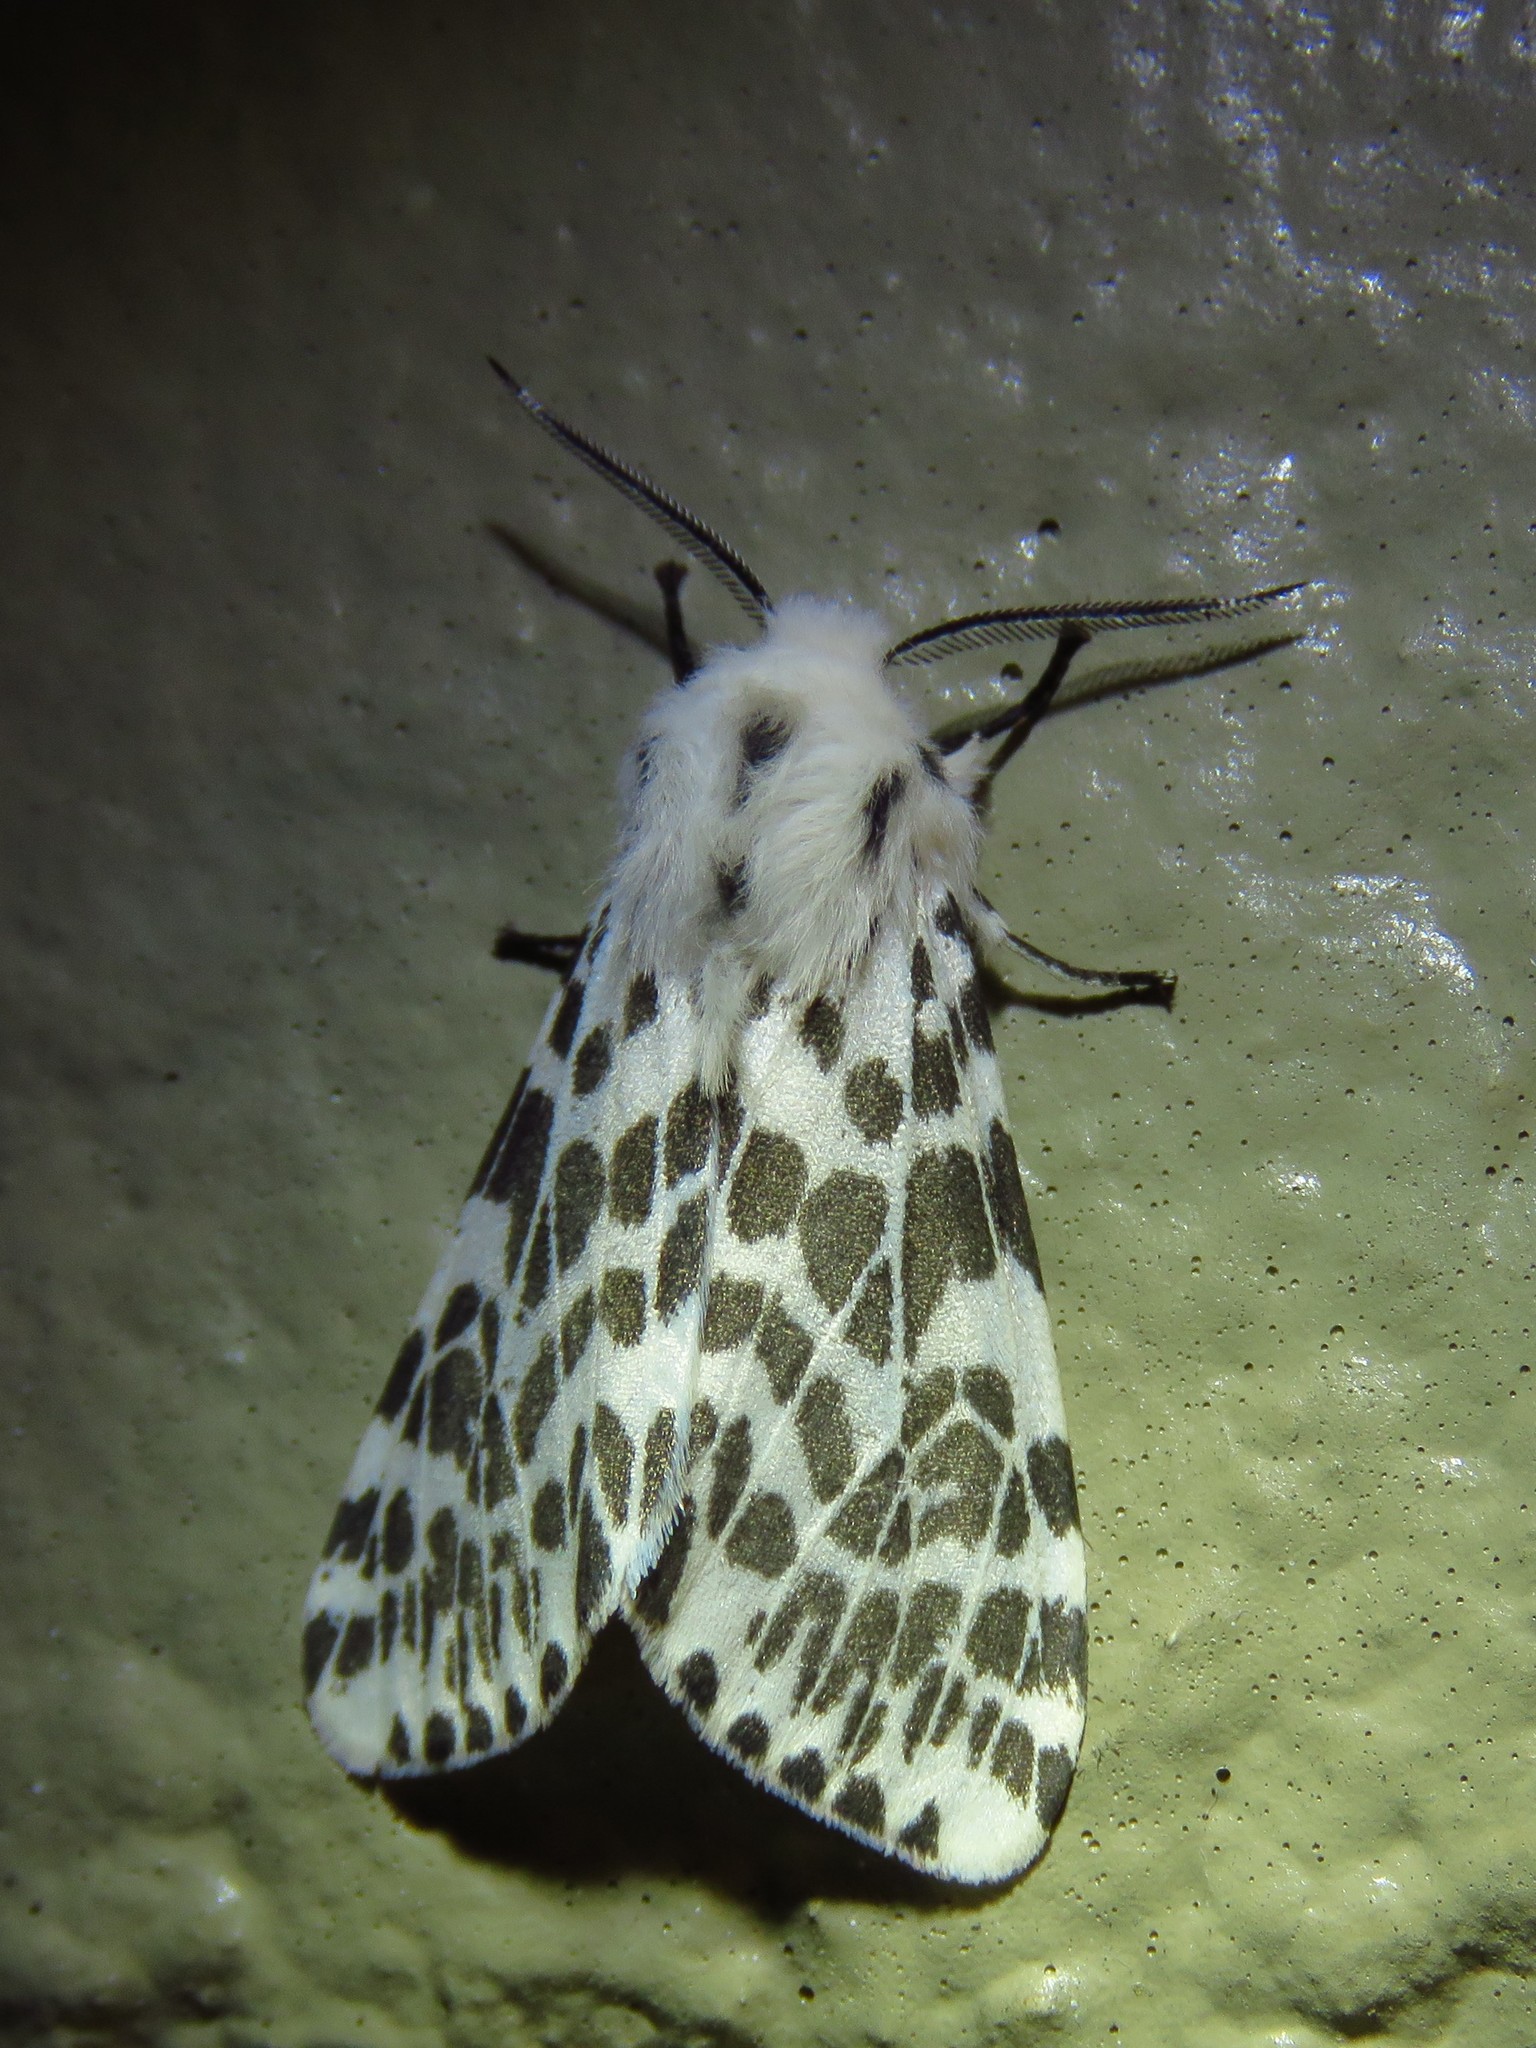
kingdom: Animalia
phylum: Arthropoda
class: Insecta
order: Lepidoptera
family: Erebidae
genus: Hyphantria
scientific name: Hyphantria cunea
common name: American white moth
